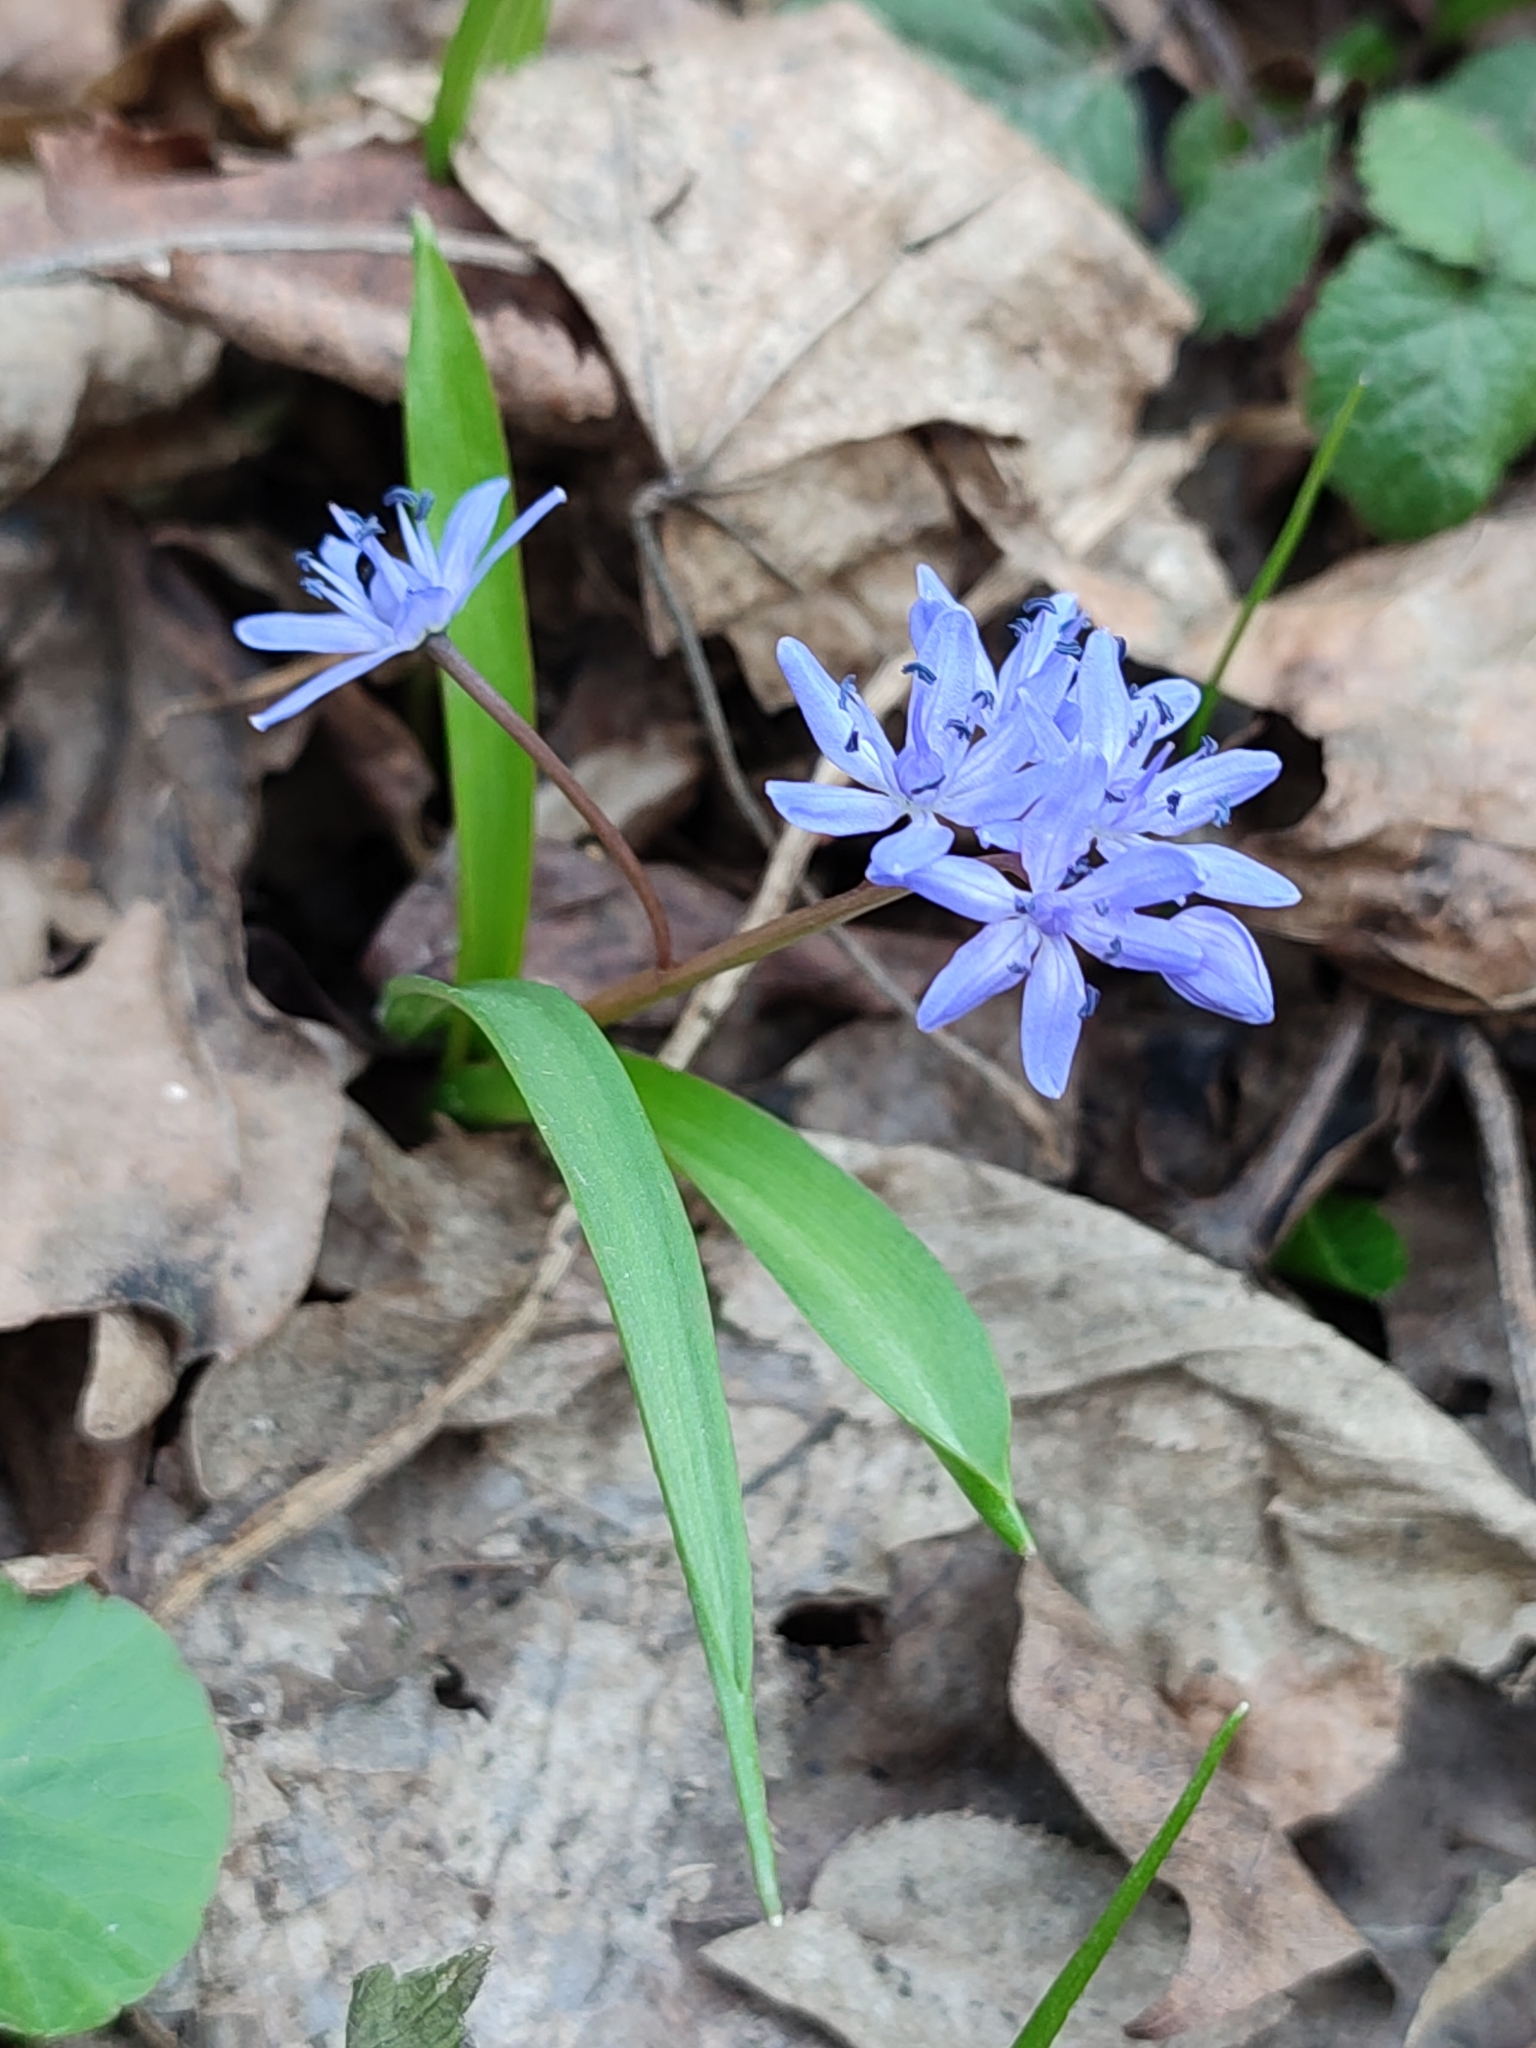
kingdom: Plantae
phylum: Tracheophyta
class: Liliopsida
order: Asparagales
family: Asparagaceae
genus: Scilla
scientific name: Scilla bifolia
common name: Alpine squill
